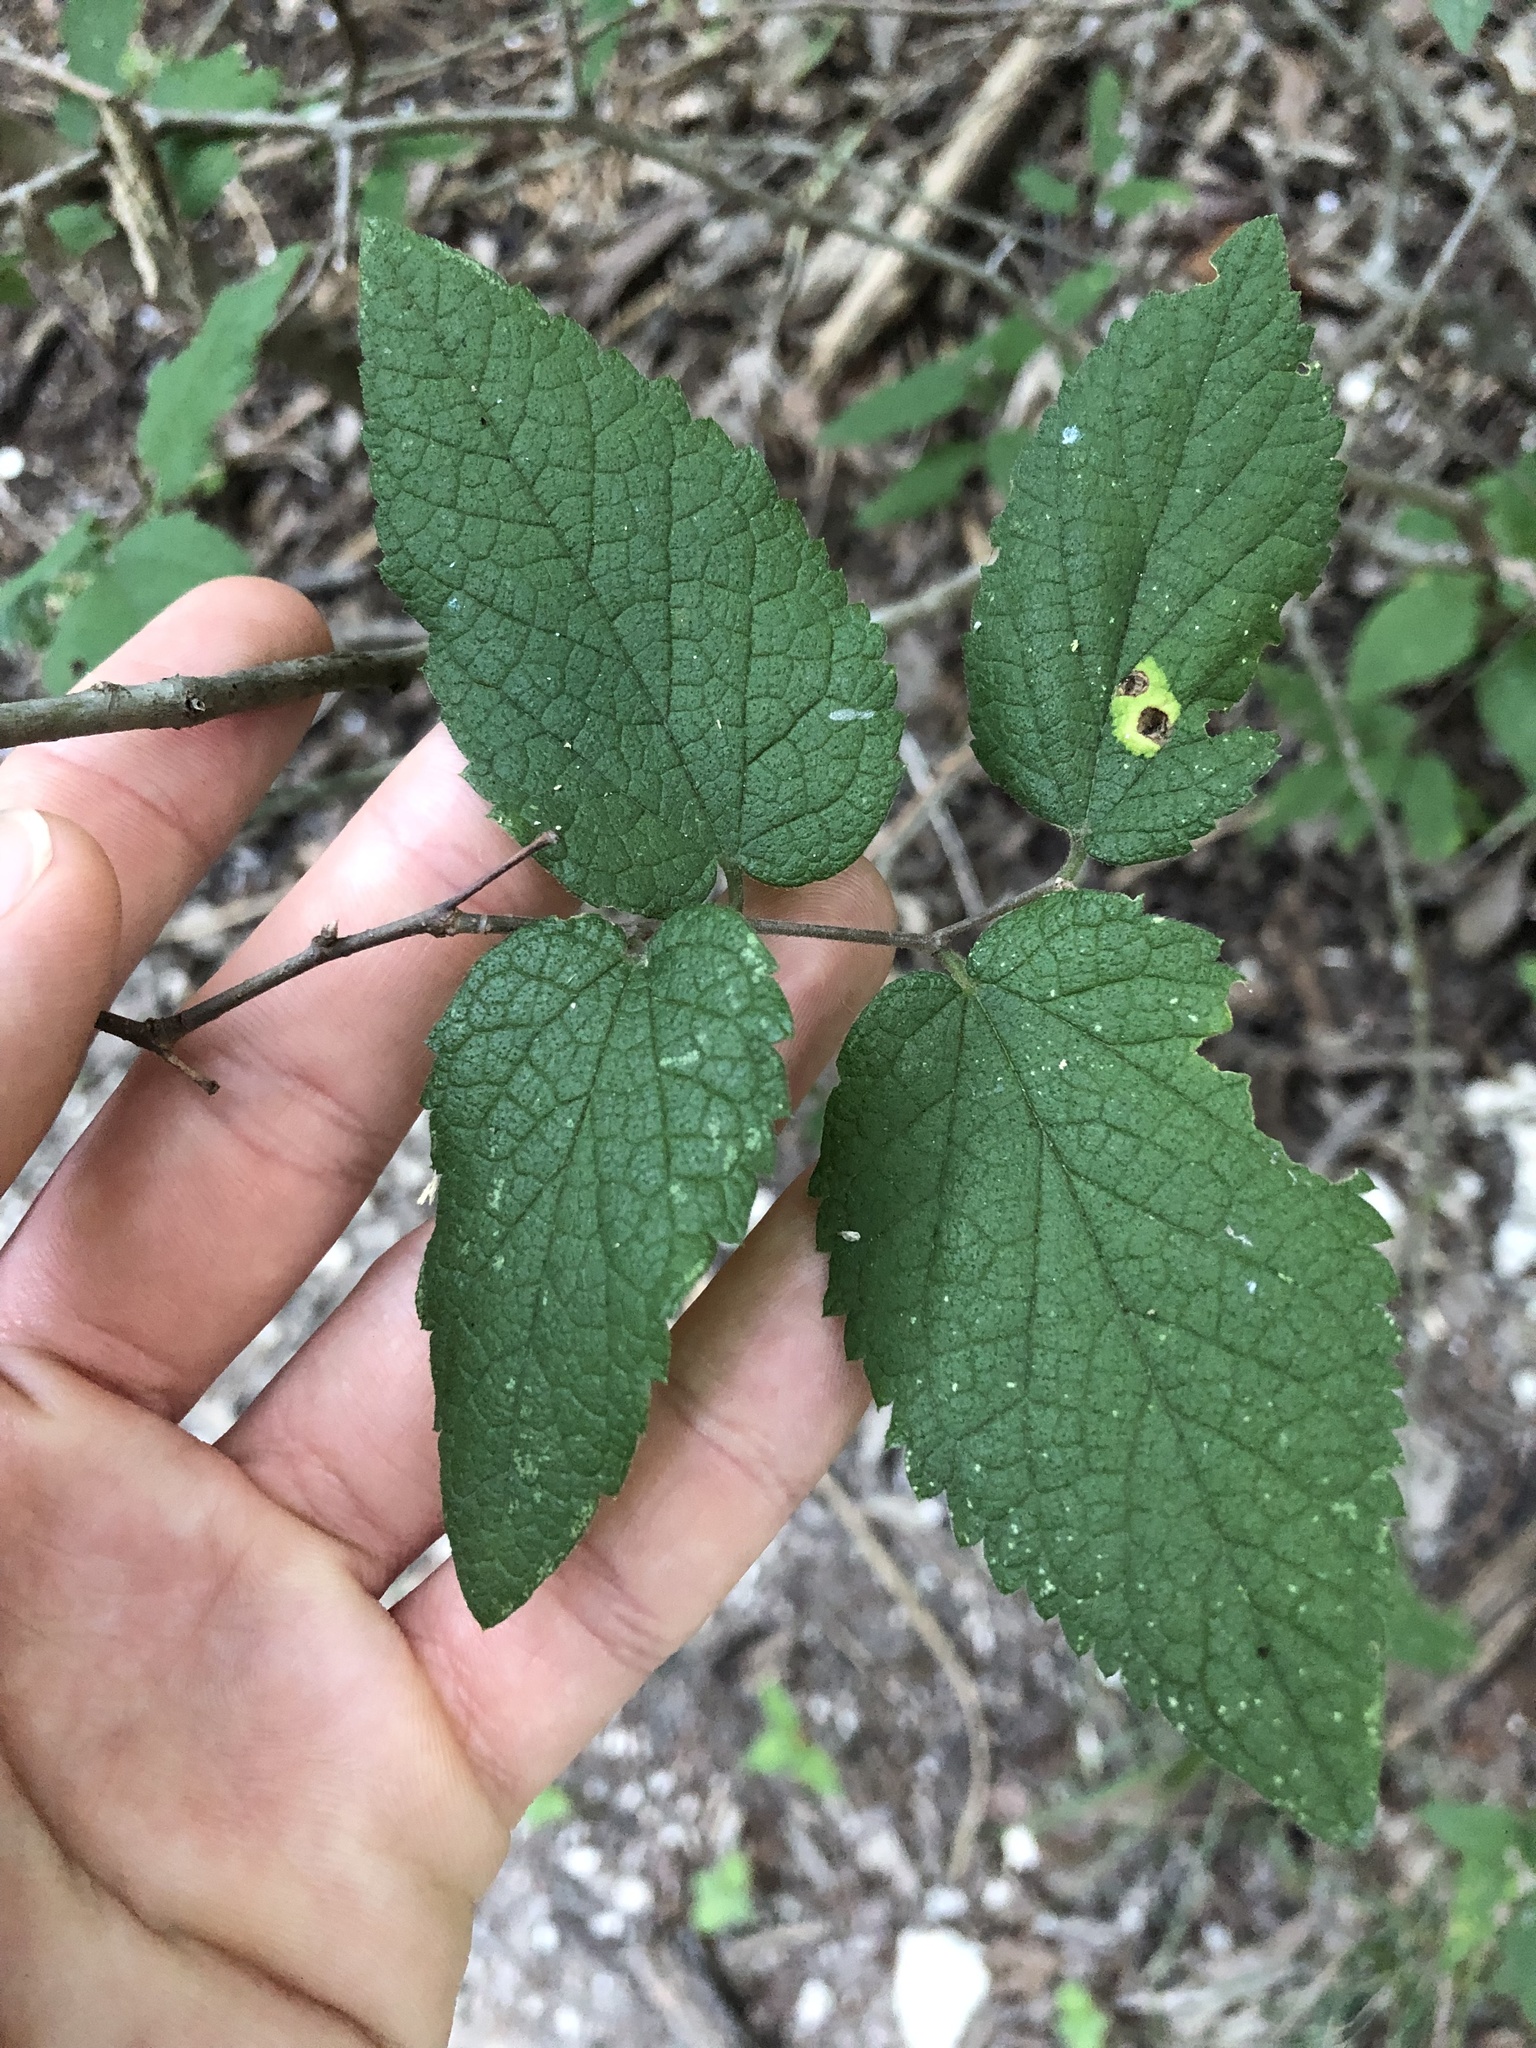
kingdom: Plantae
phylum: Tracheophyta
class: Magnoliopsida
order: Rosales
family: Cannabaceae
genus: Celtis
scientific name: Celtis reticulata
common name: Netleaf hackberry
